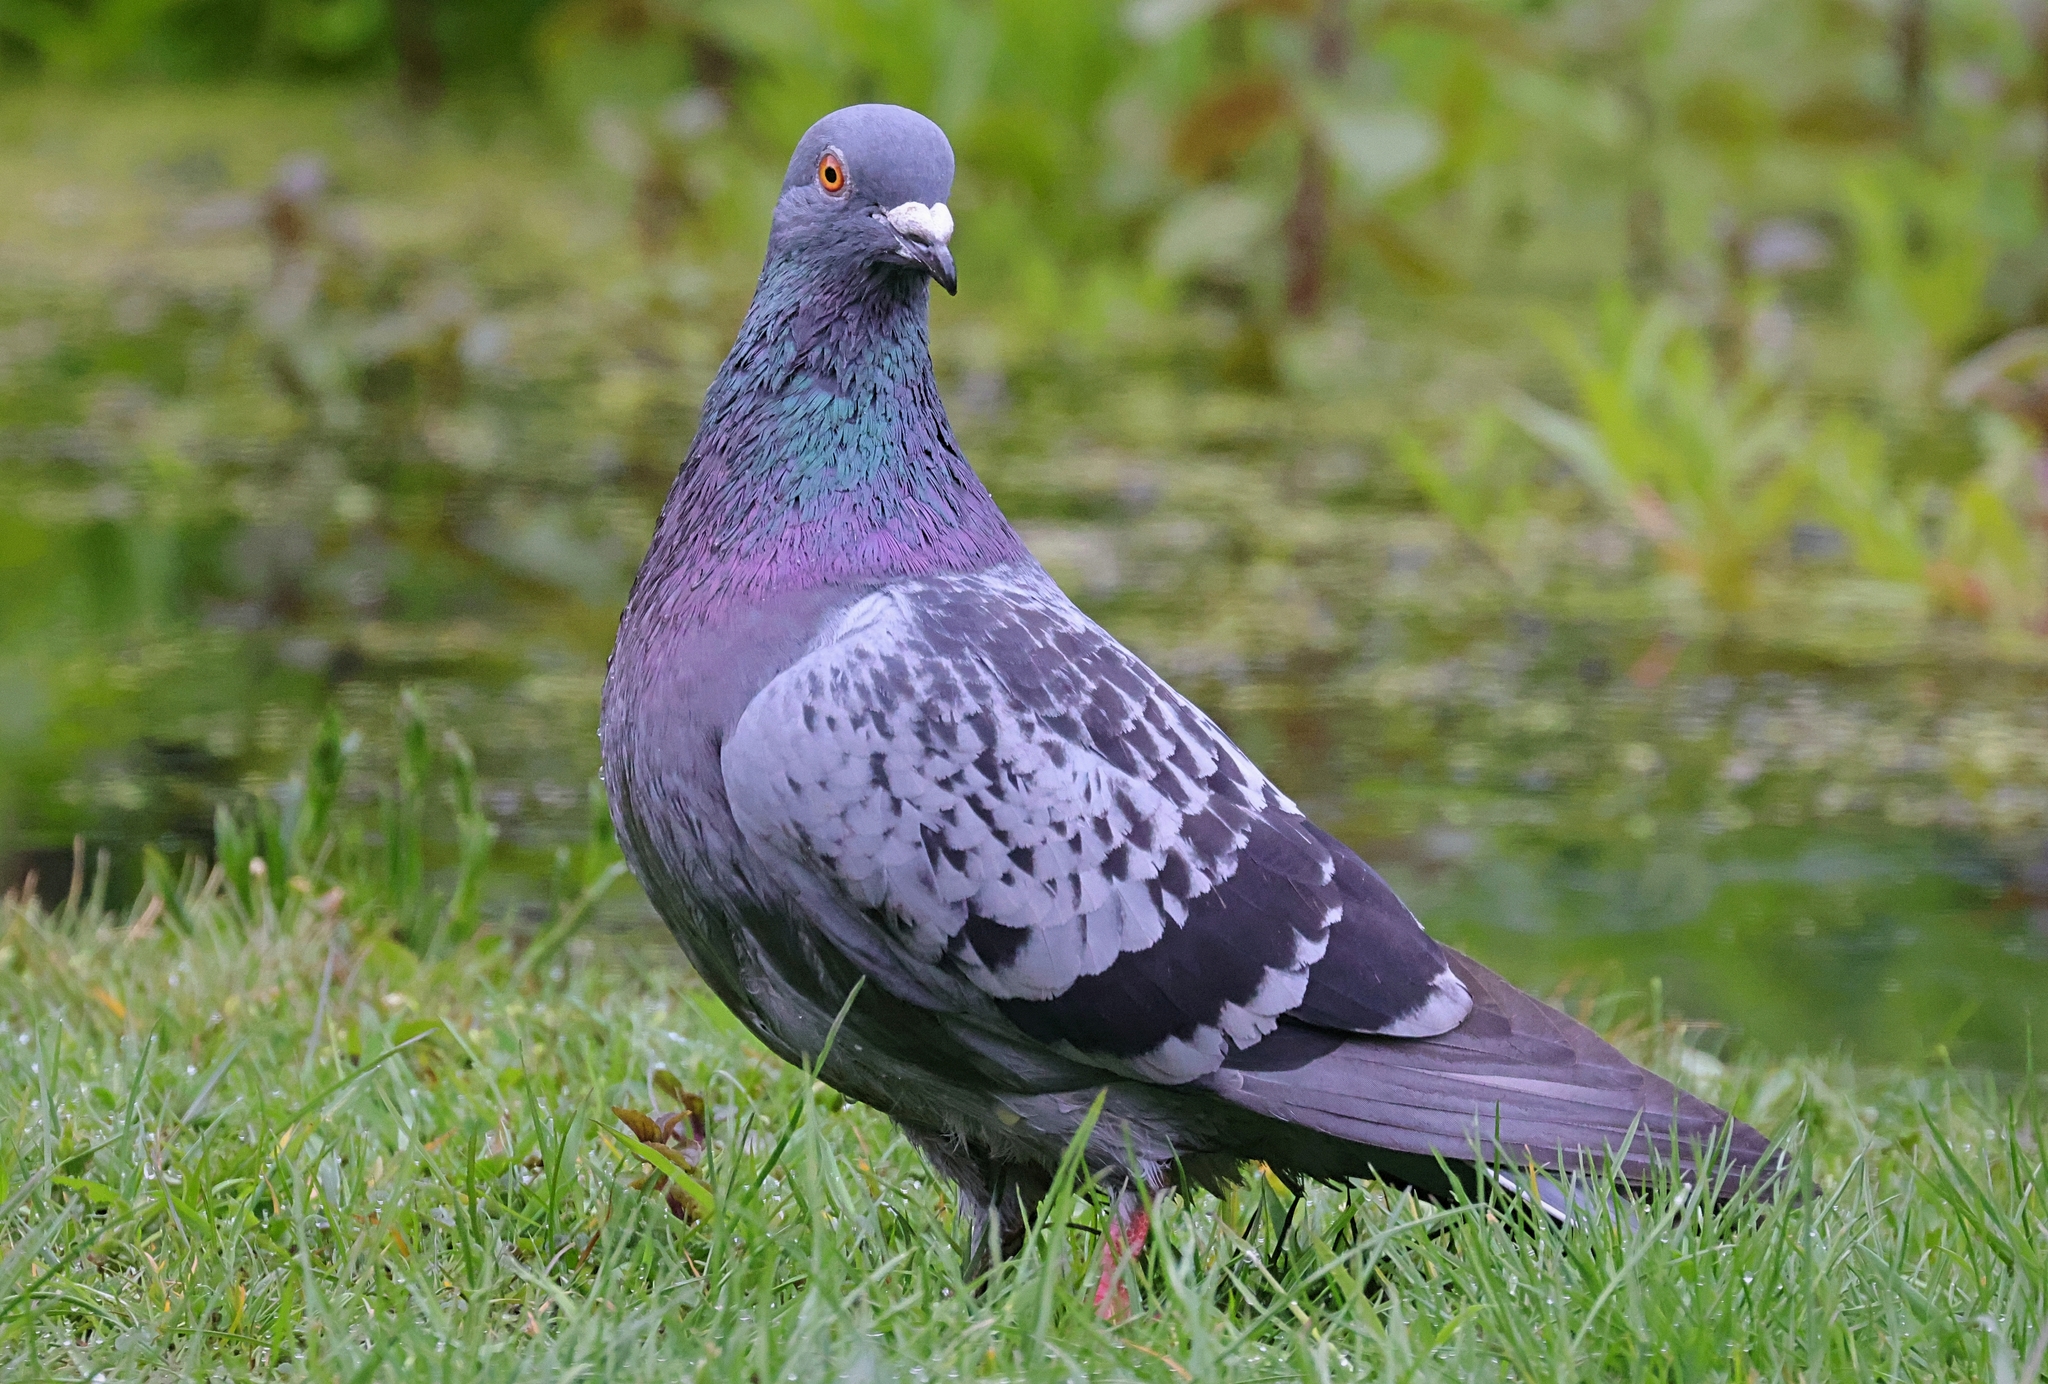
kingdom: Animalia
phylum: Chordata
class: Aves
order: Columbiformes
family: Columbidae
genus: Columba
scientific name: Columba livia
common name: Rock pigeon
